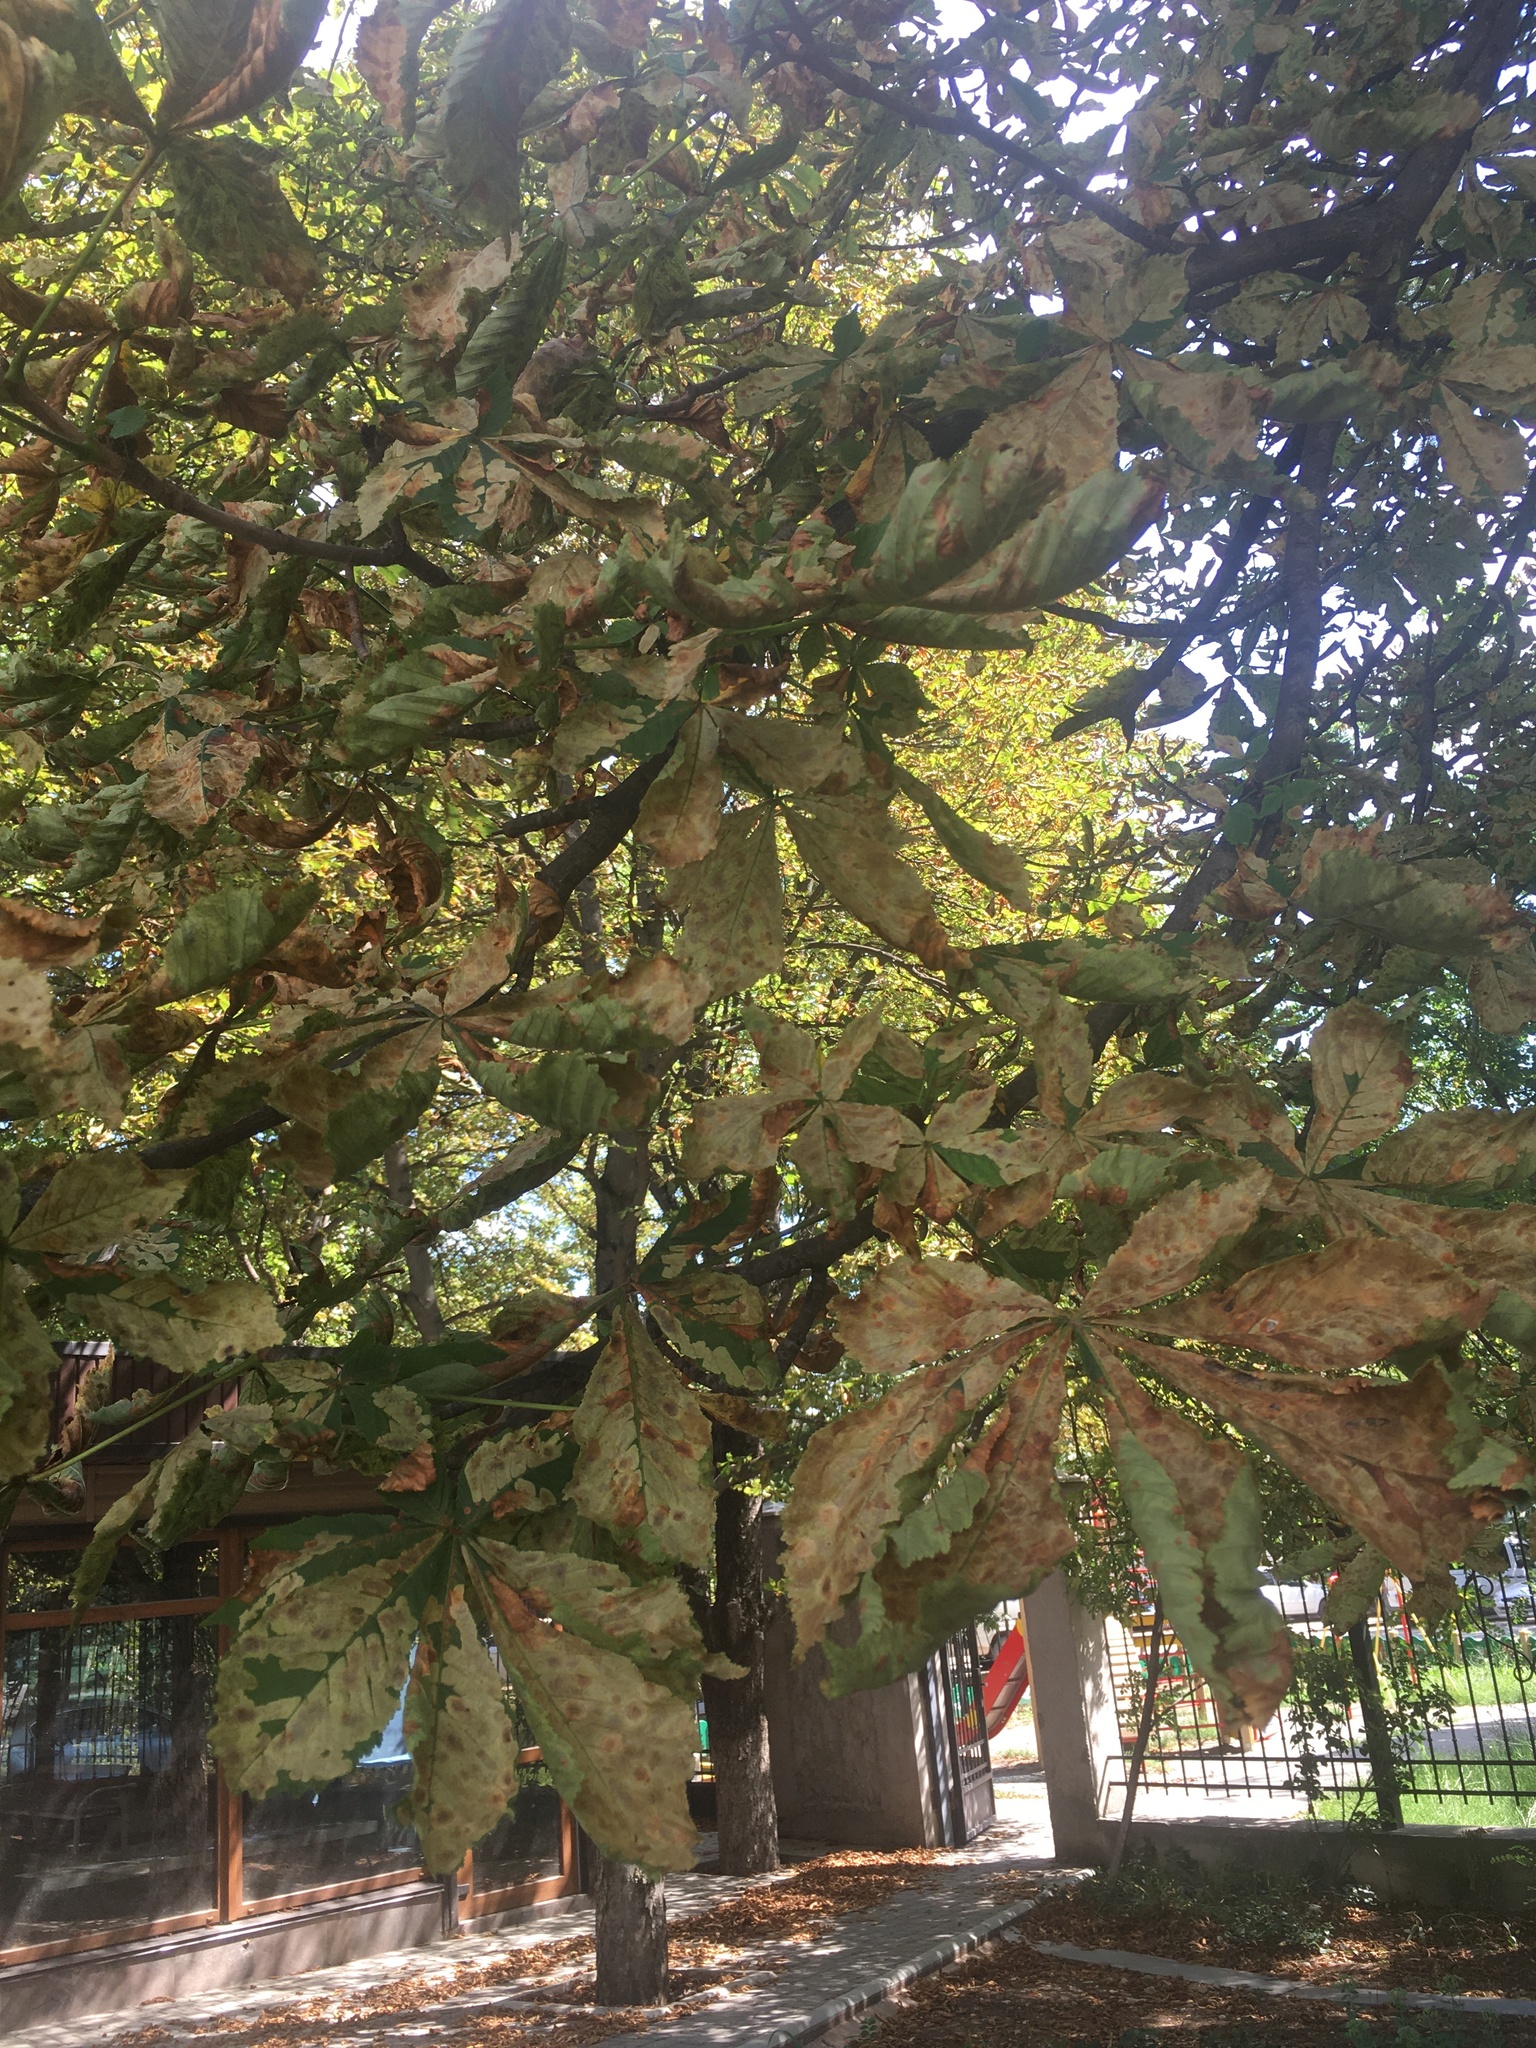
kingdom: Animalia
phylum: Arthropoda
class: Insecta
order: Lepidoptera
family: Gracillariidae
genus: Cameraria
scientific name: Cameraria ohridella
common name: Horse-chestnut leaf-miner
